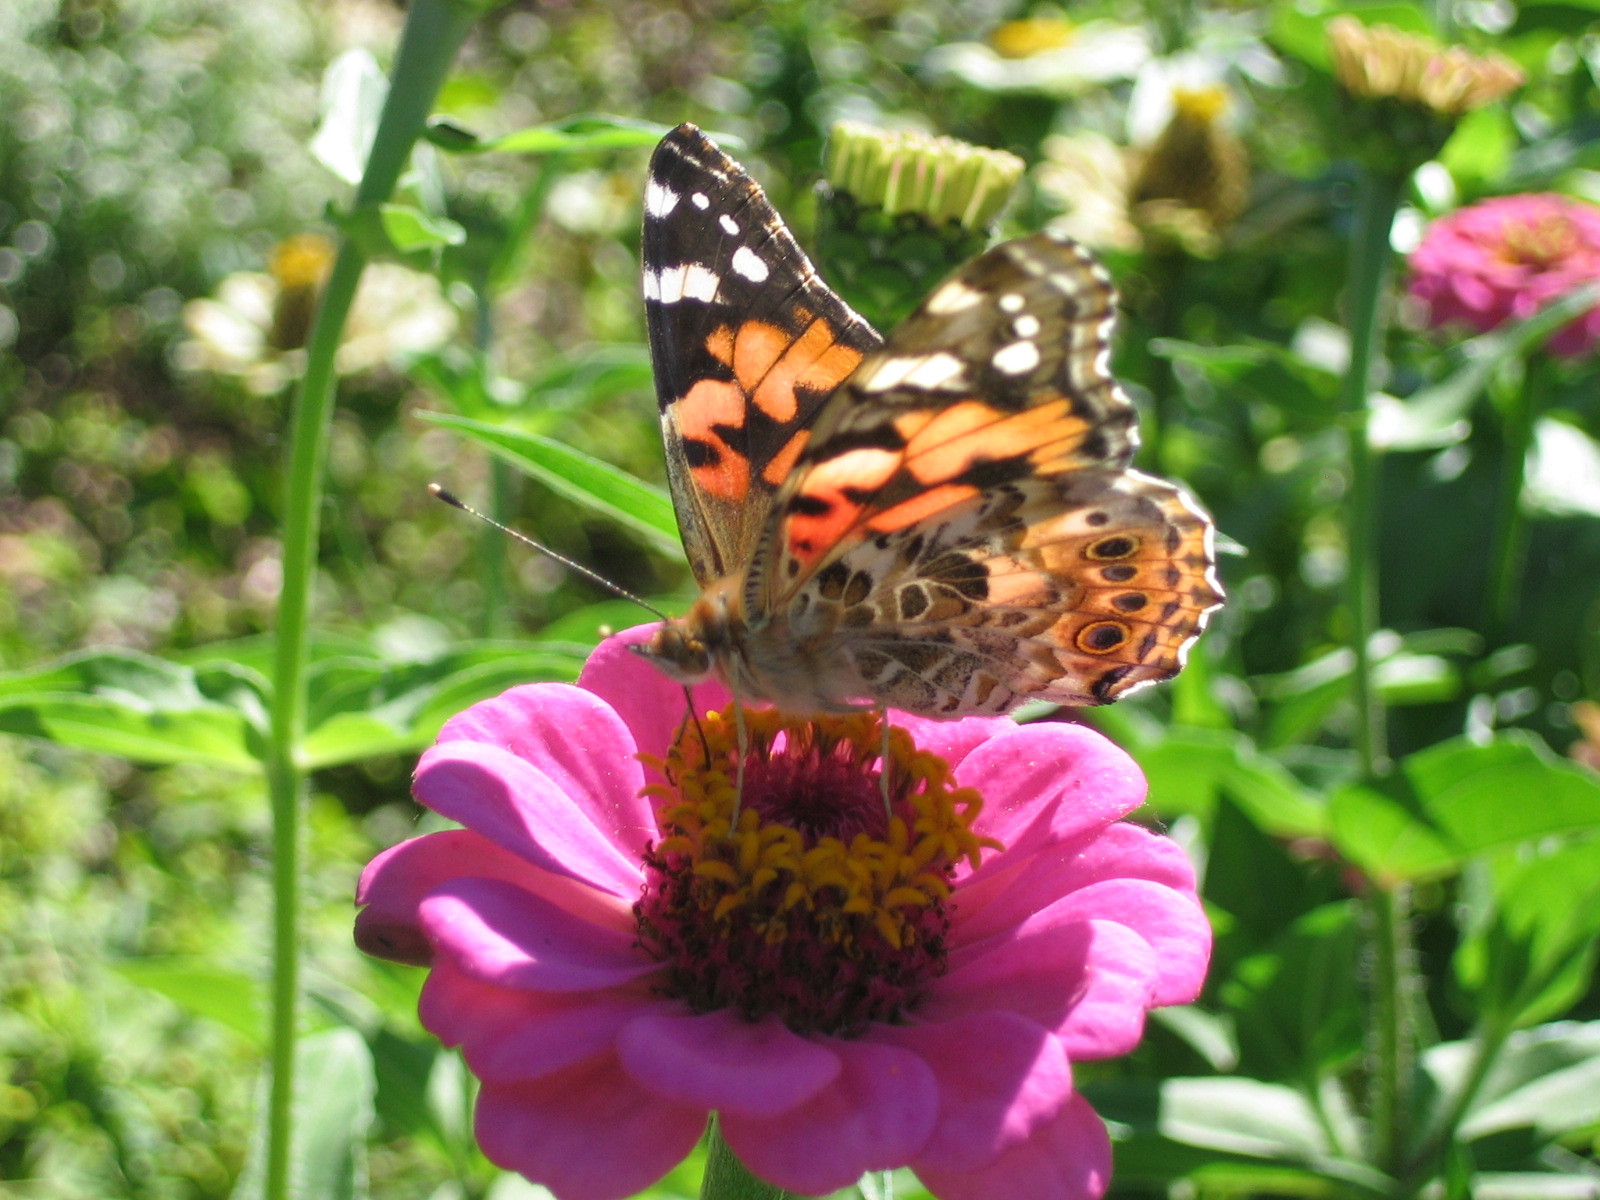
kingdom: Animalia
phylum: Arthropoda
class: Insecta
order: Lepidoptera
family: Nymphalidae
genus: Vanessa
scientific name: Vanessa cardui
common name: Painted lady
